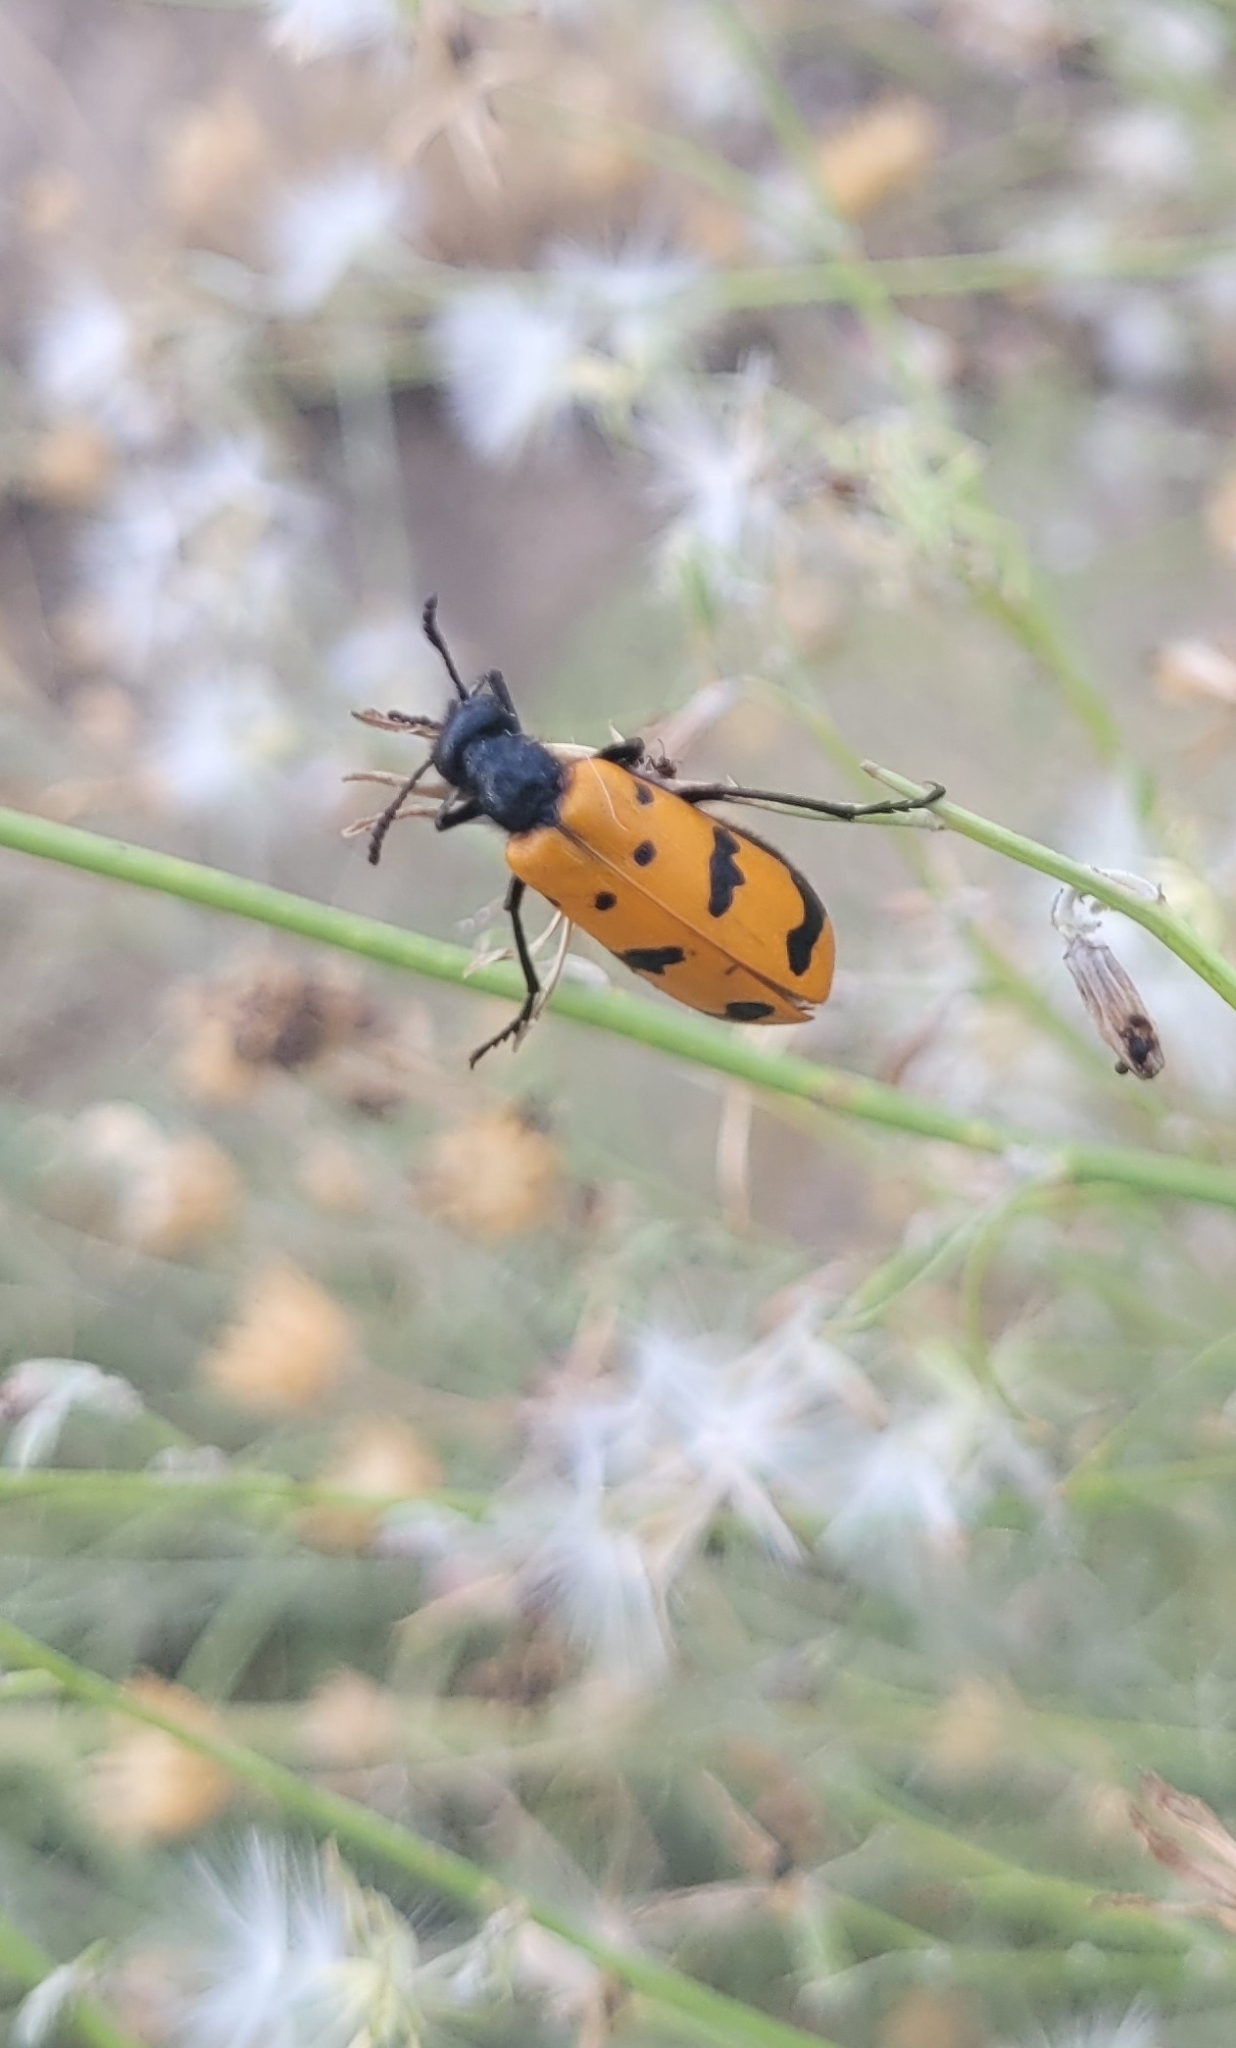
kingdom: Animalia
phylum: Arthropoda
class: Insecta
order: Coleoptera
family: Meloidae
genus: Mylabris
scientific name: Mylabris calida
